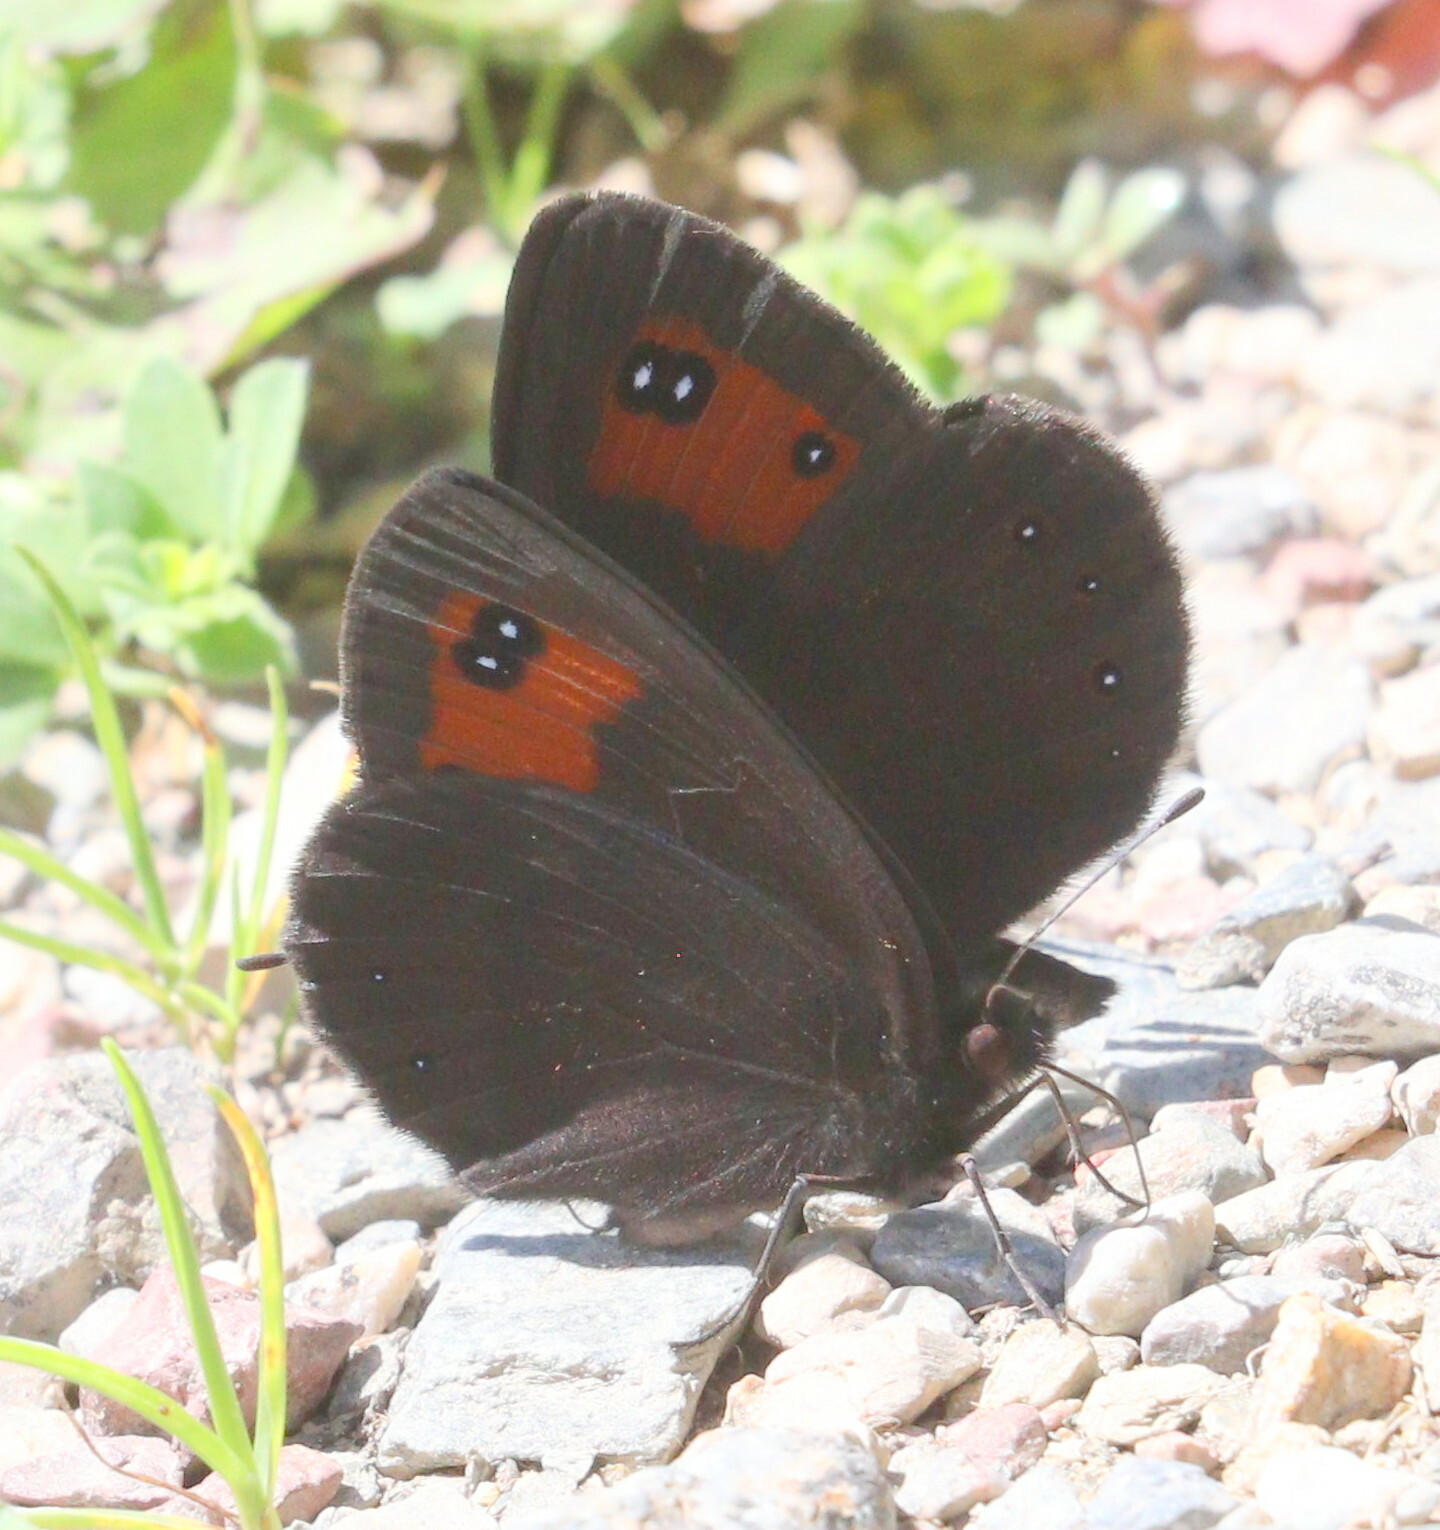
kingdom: Animalia
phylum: Arthropoda
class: Insecta
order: Lepidoptera
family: Nymphalidae
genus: Erebia
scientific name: Erebia meolans
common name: Piedmont ringlet
